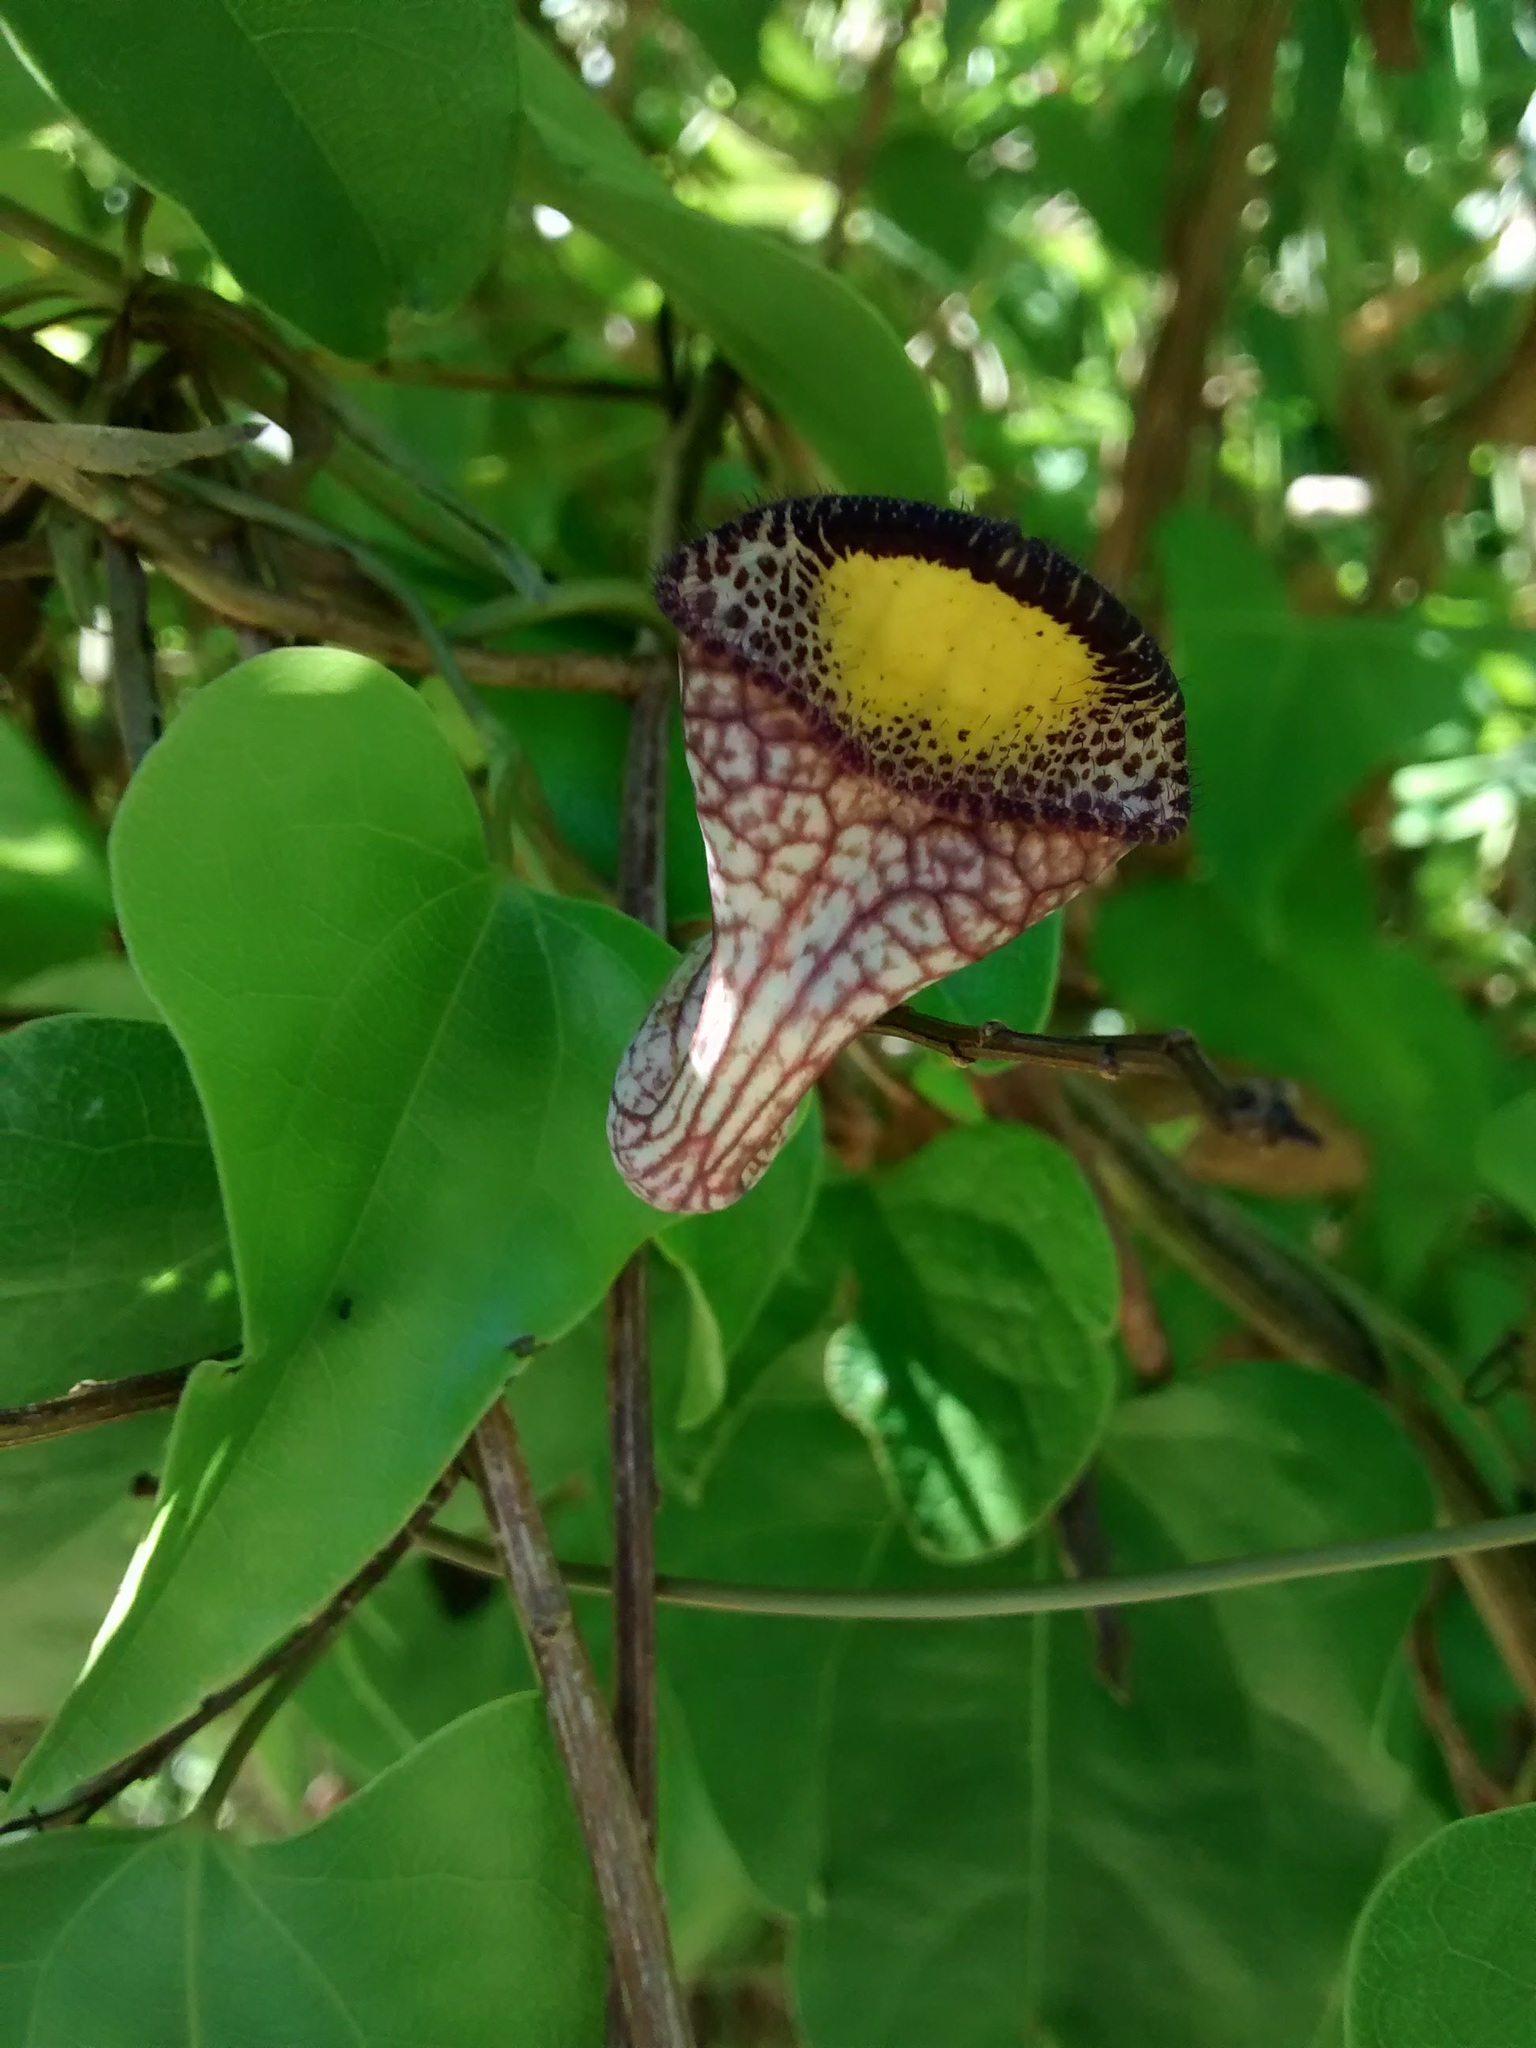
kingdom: Plantae
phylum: Tracheophyta
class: Magnoliopsida
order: Piperales
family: Aristolochiaceae
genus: Aristolochia
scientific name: Aristolochia triangularis
